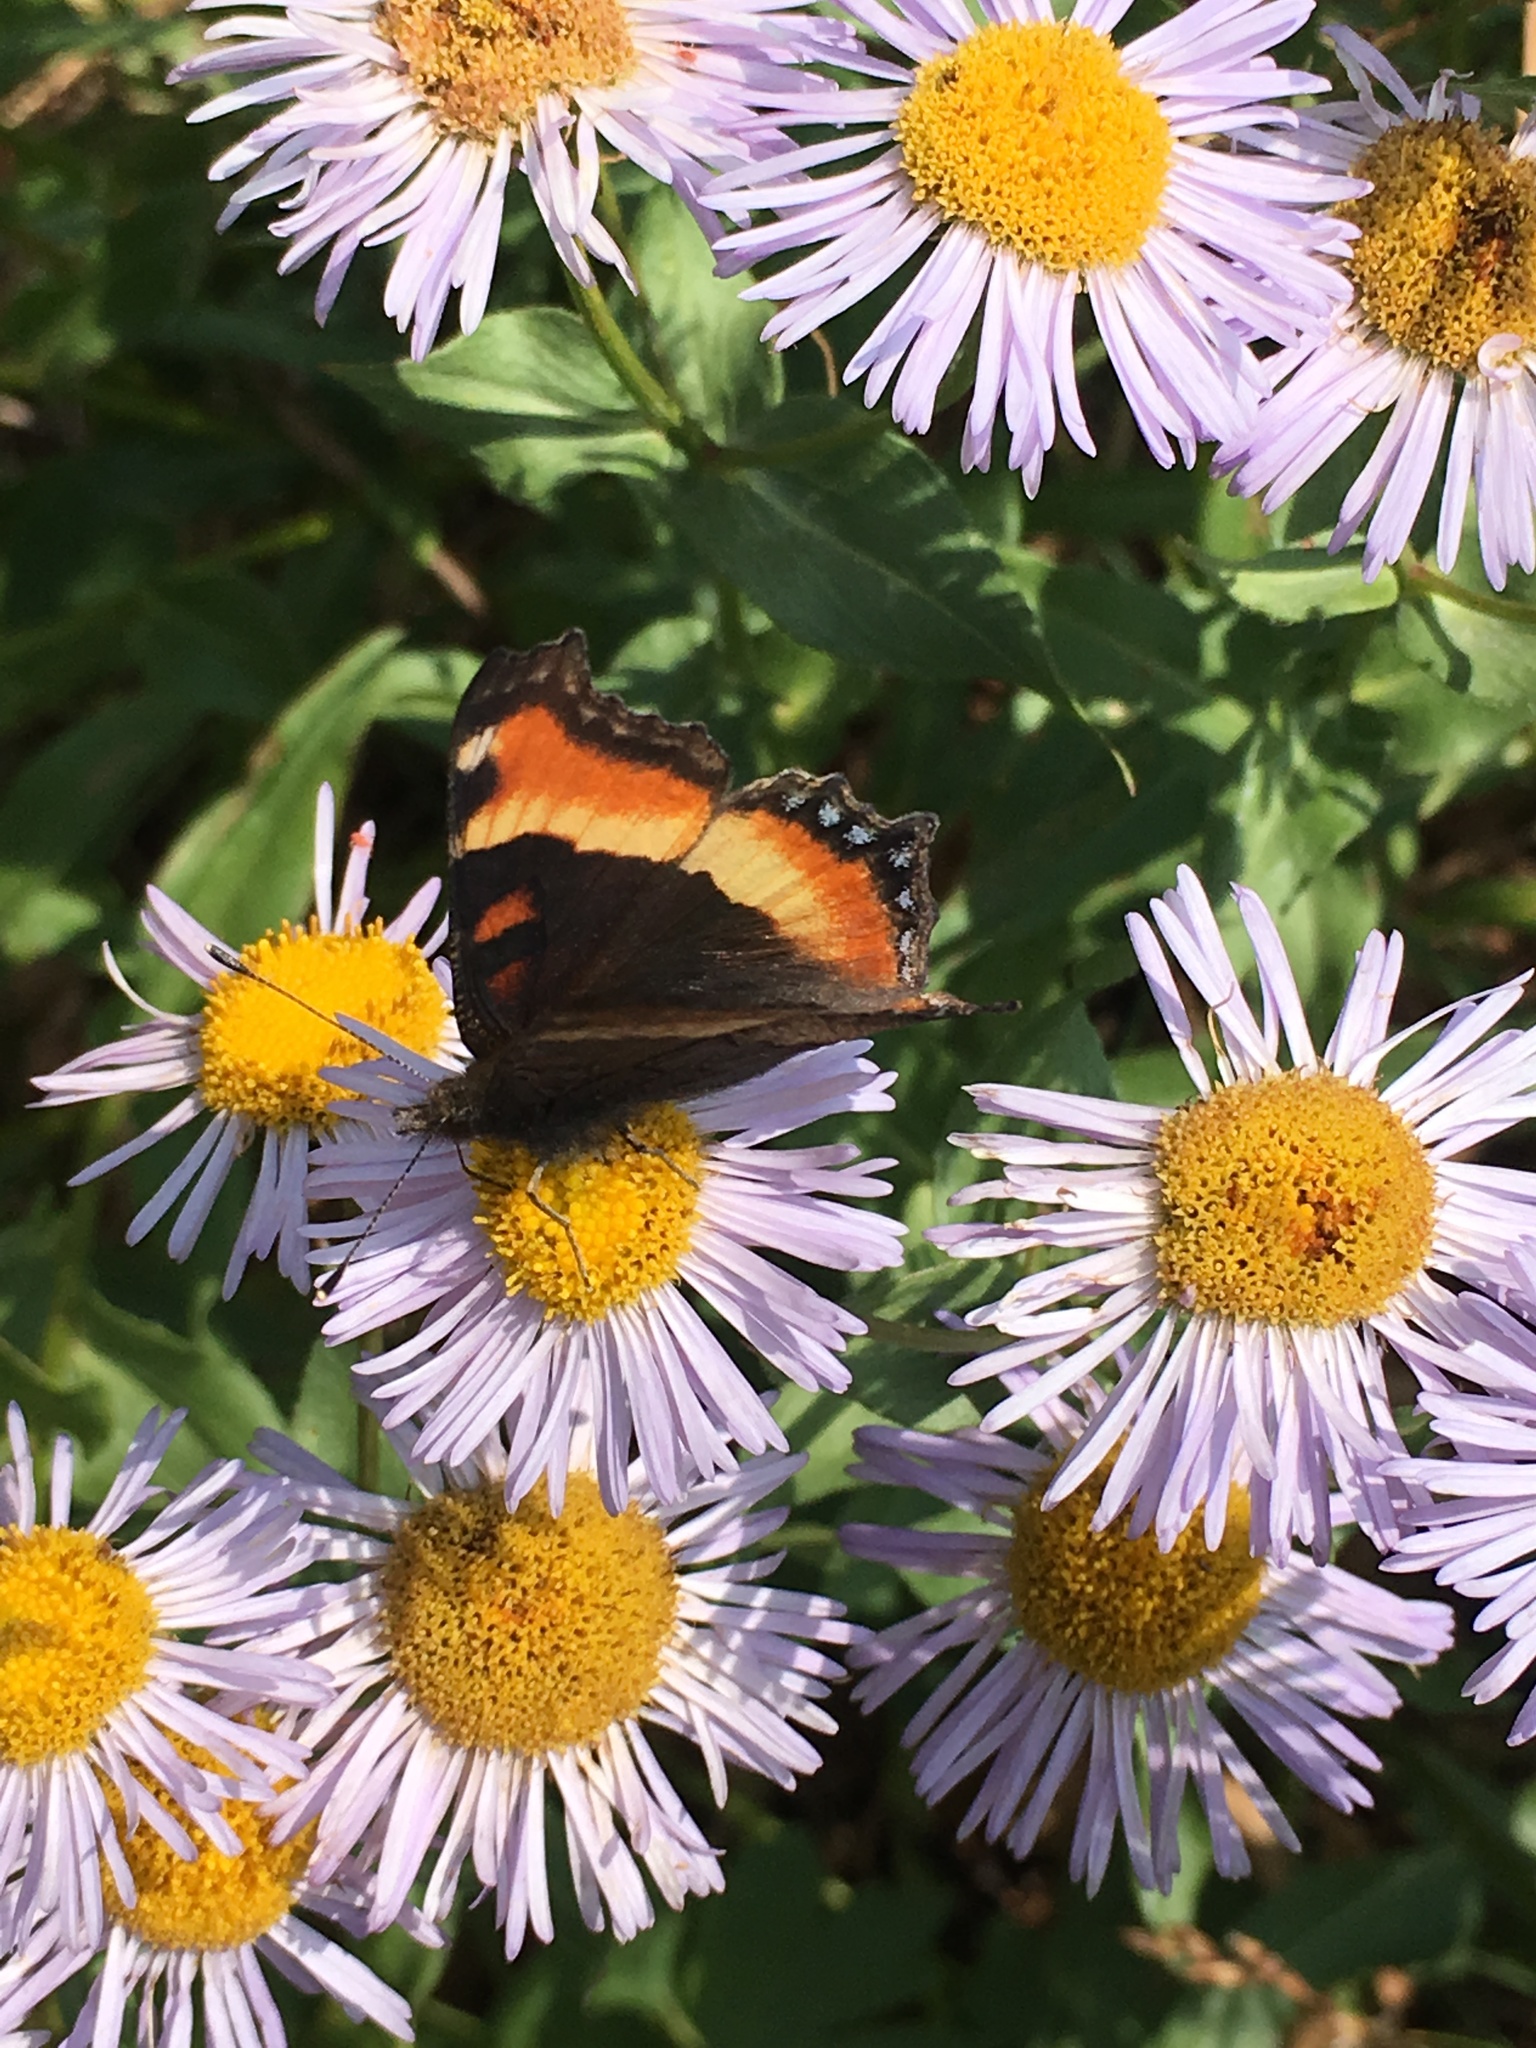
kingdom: Animalia
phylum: Arthropoda
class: Insecta
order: Lepidoptera
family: Nymphalidae
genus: Aglais
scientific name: Aglais milberti
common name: Milbert's tortoiseshell
